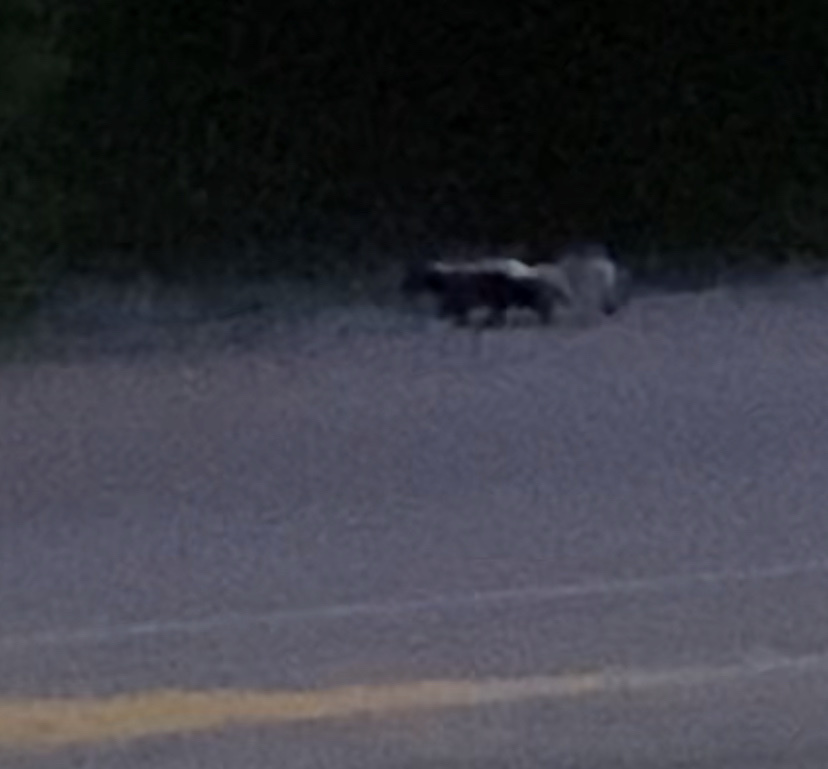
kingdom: Animalia
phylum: Chordata
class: Mammalia
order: Carnivora
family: Mephitidae
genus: Mephitis
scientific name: Mephitis mephitis
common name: Striped skunk
